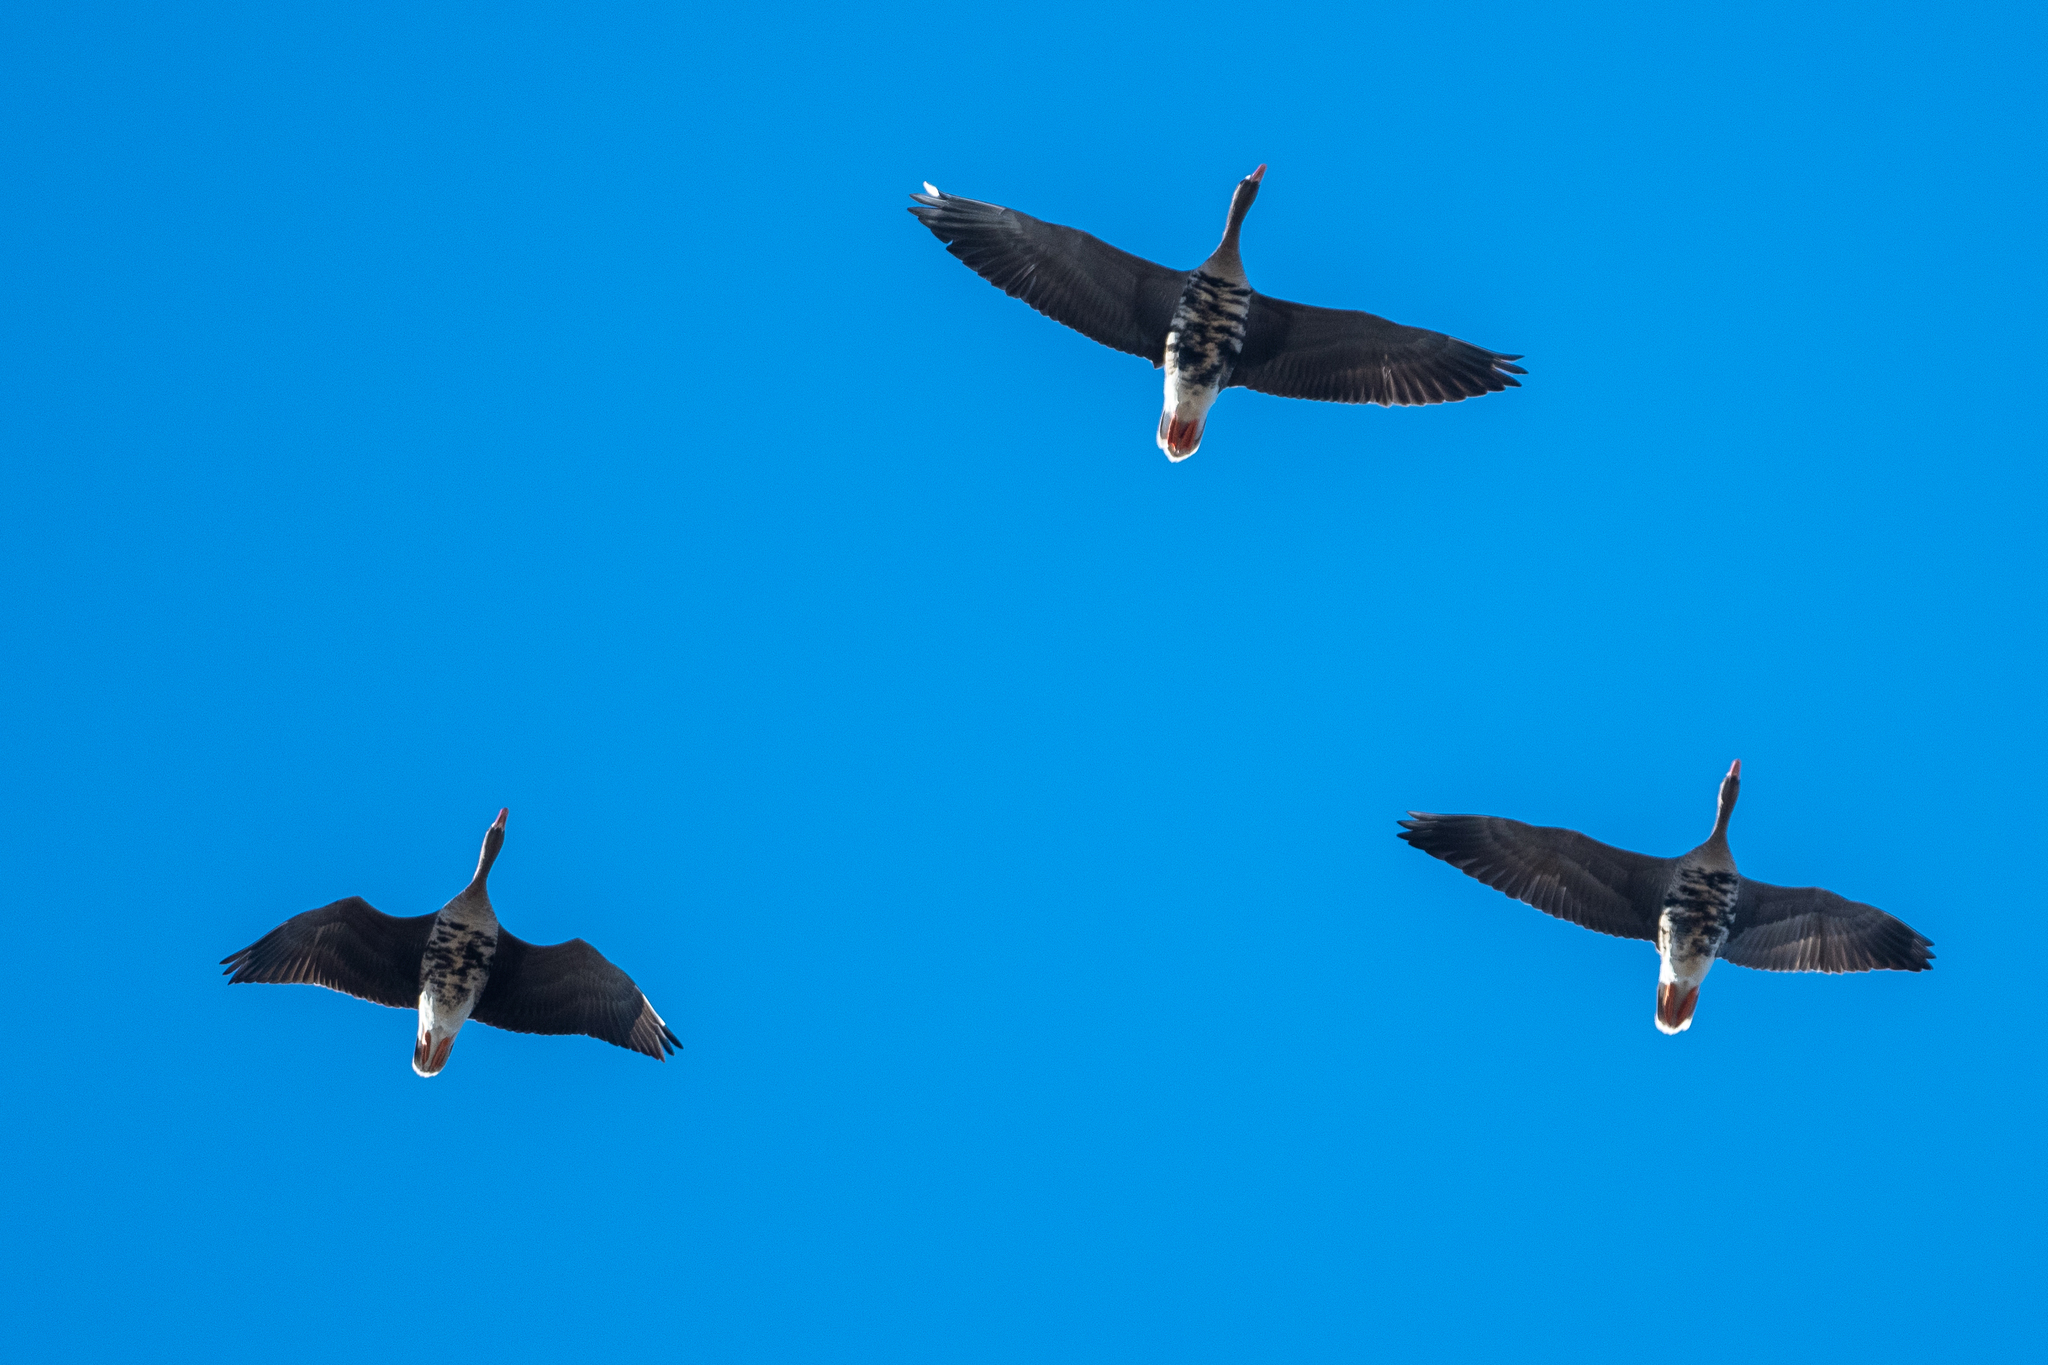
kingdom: Animalia
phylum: Chordata
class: Aves
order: Anseriformes
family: Anatidae
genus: Anser
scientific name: Anser albifrons
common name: Greater white-fronted goose
